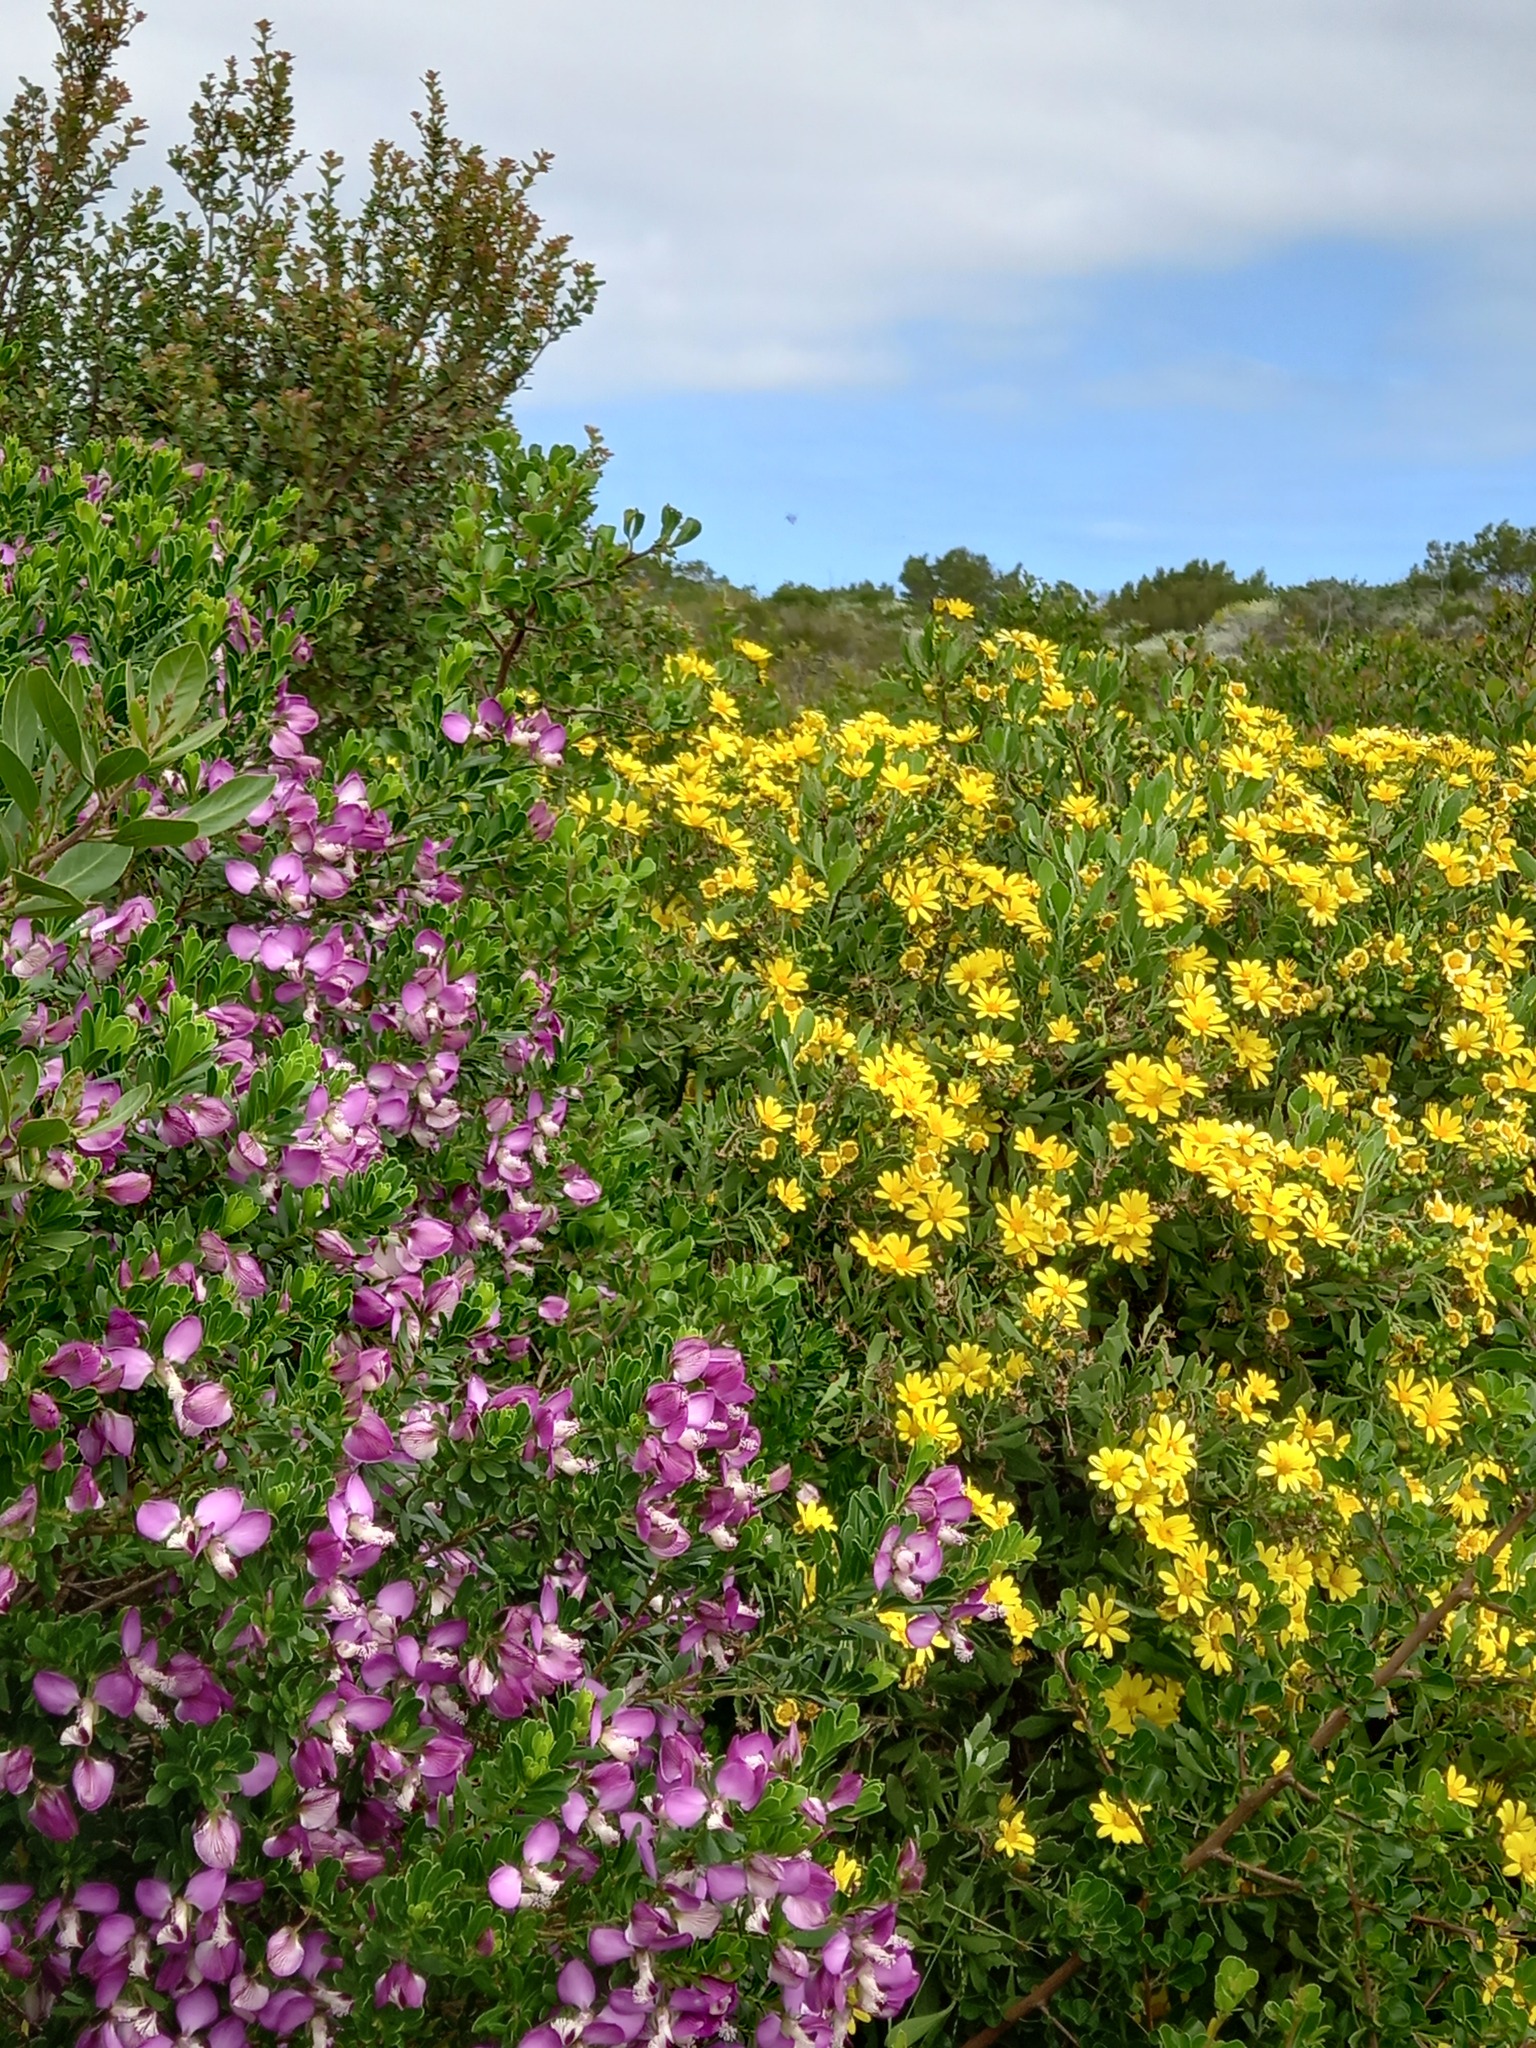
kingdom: Plantae
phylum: Tracheophyta
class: Magnoliopsida
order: Asterales
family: Asteraceae
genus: Osteospermum
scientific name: Osteospermum moniliferum
